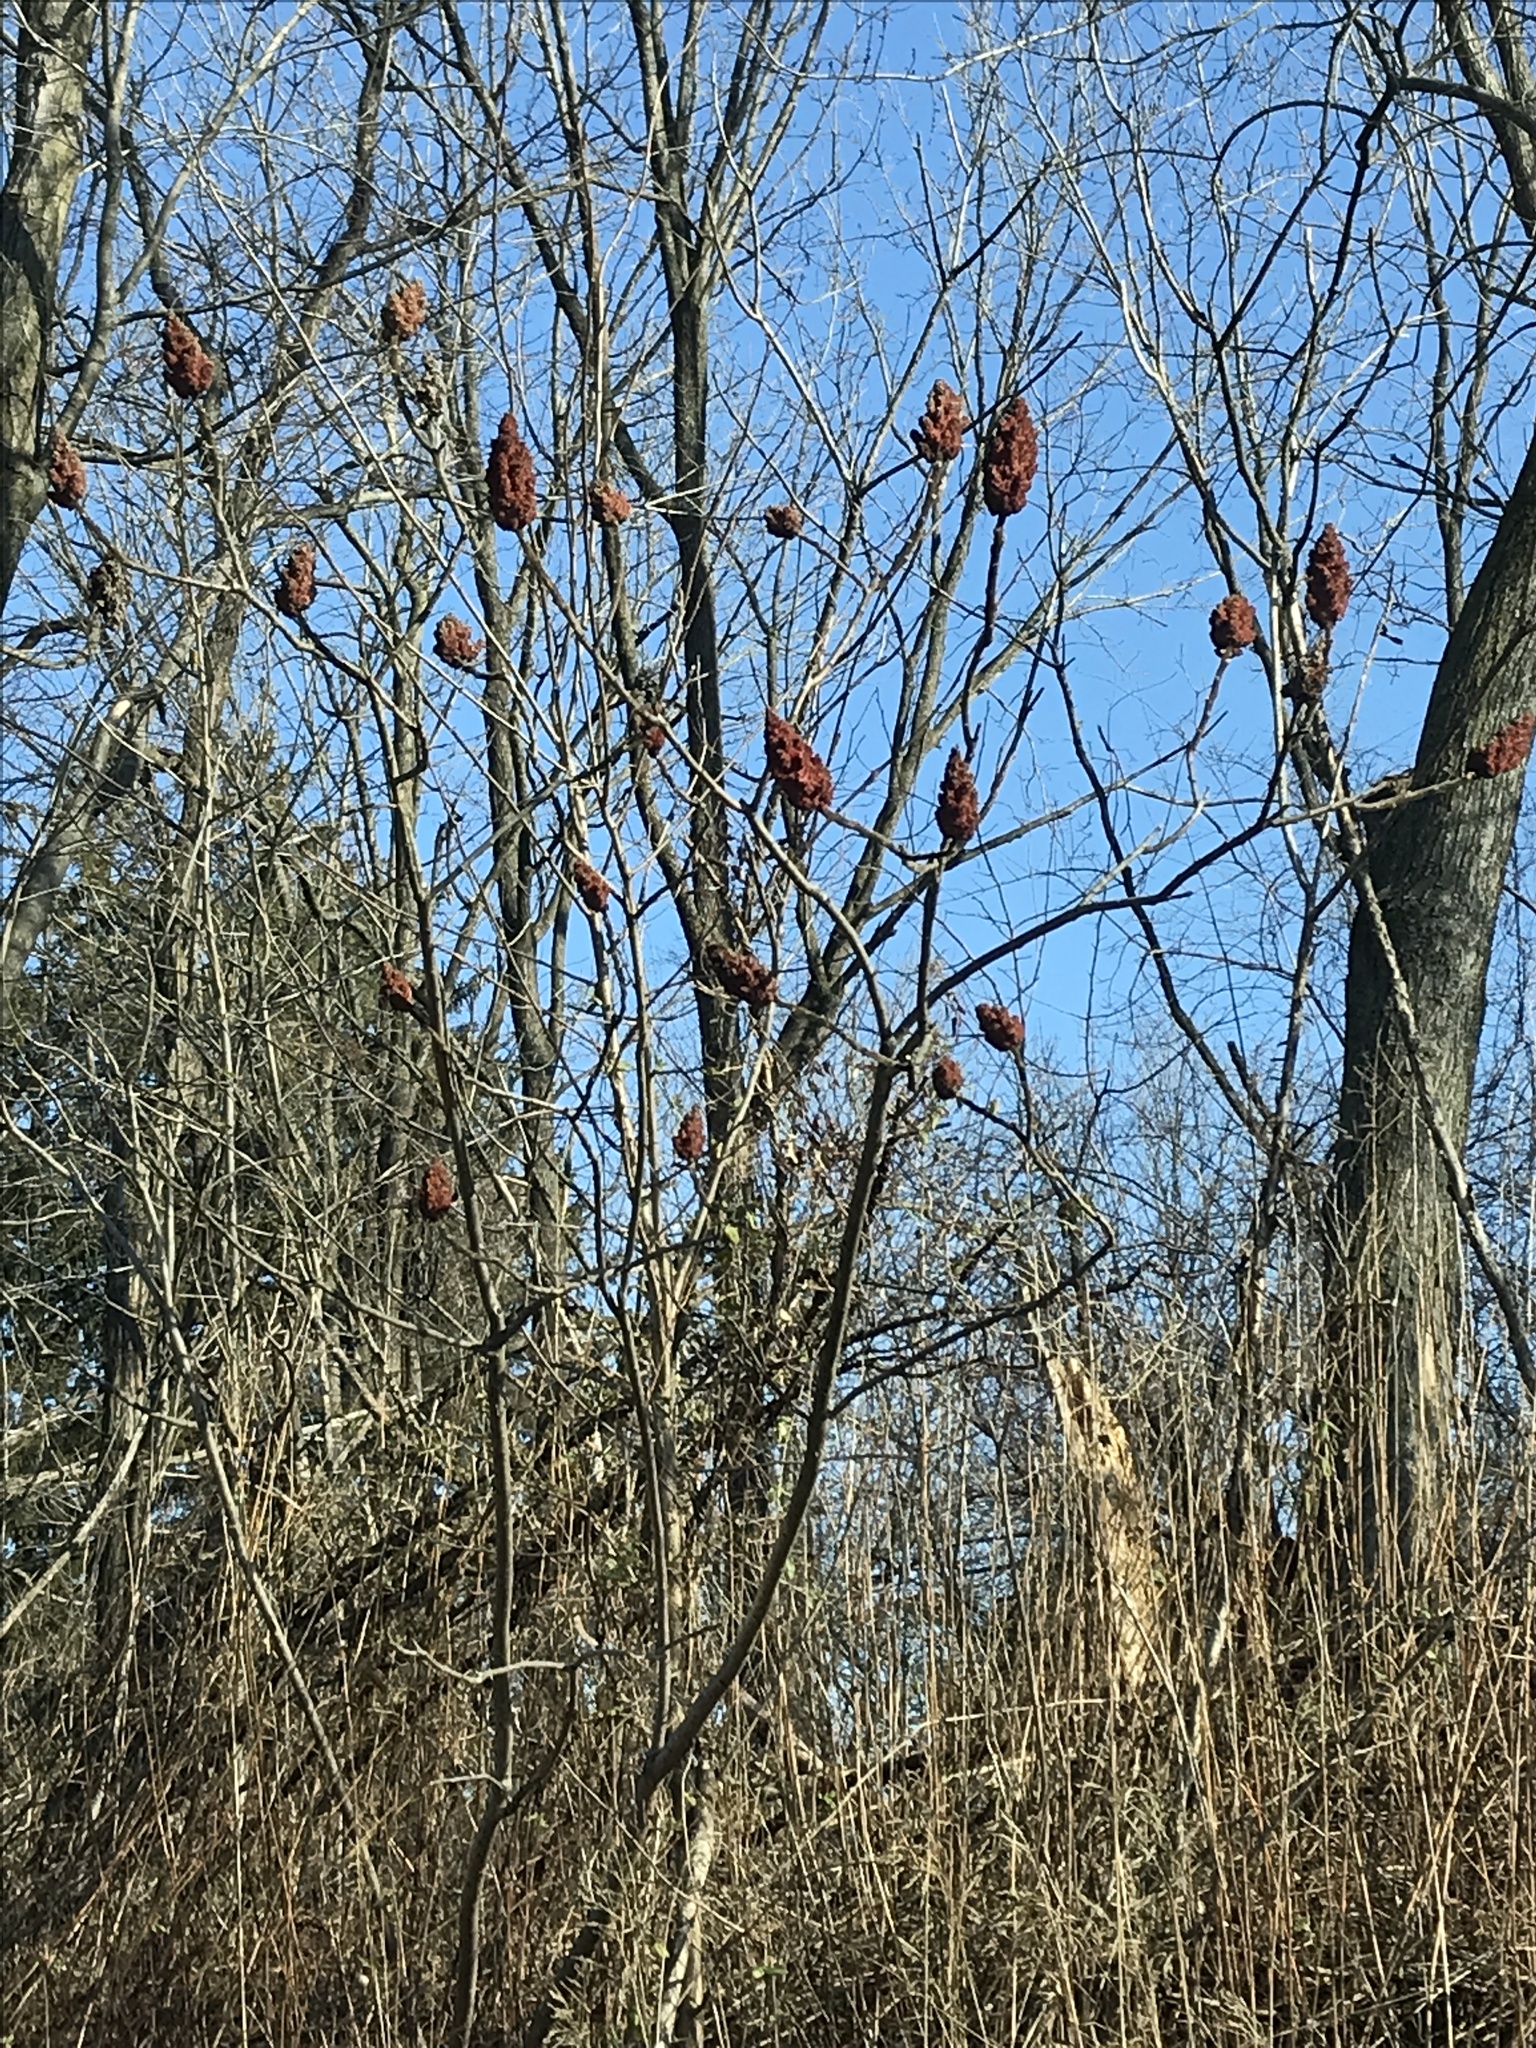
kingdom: Plantae
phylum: Tracheophyta
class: Magnoliopsida
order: Sapindales
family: Anacardiaceae
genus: Rhus
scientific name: Rhus typhina
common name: Staghorn sumac
